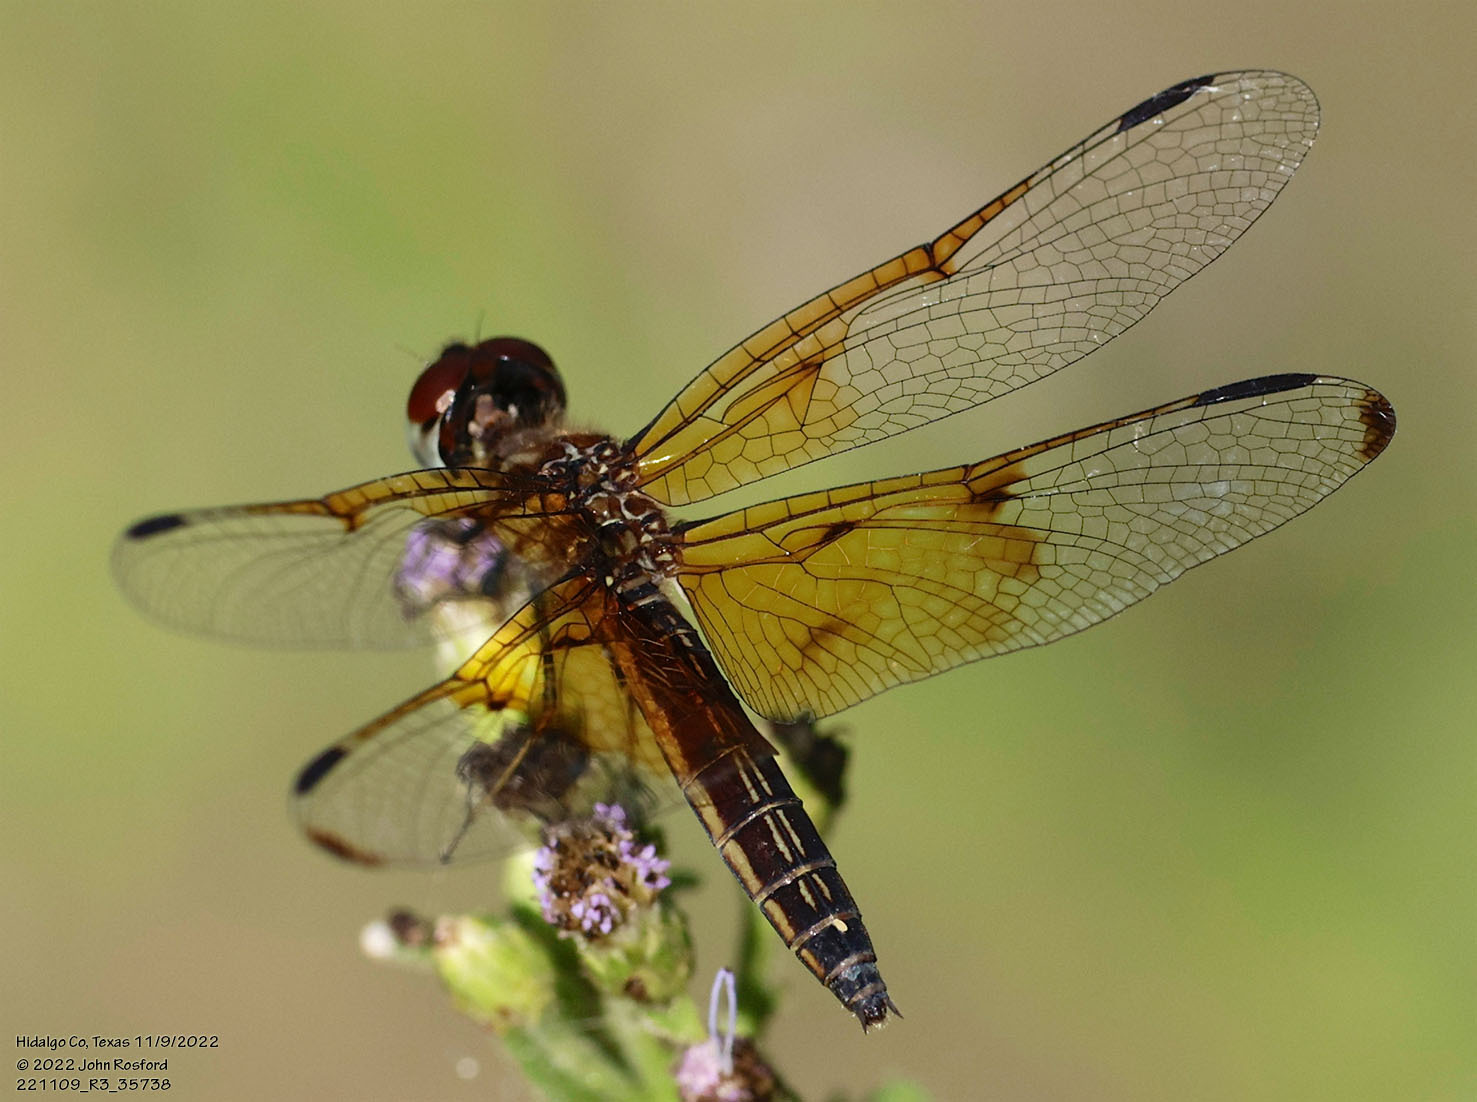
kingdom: Animalia
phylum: Arthropoda
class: Insecta
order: Odonata
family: Libellulidae
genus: Perithemis
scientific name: Perithemis domitia
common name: Slough amberwing
